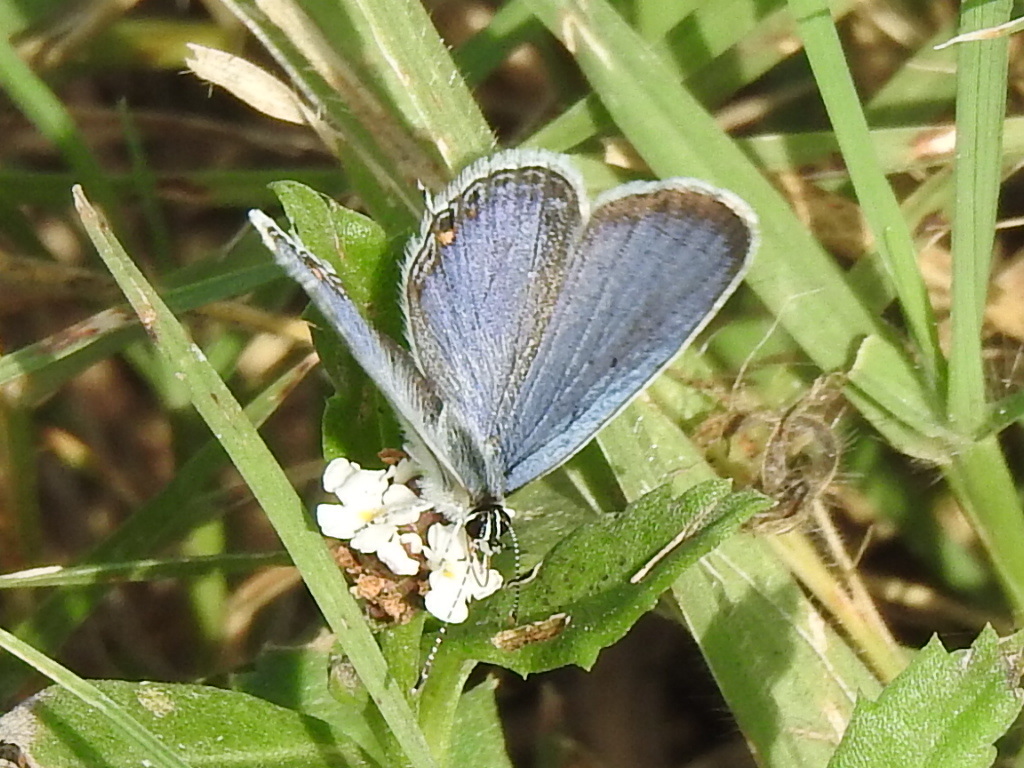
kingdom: Animalia
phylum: Arthropoda
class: Insecta
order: Lepidoptera
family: Lycaenidae
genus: Elkalyce
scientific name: Elkalyce comyntas
